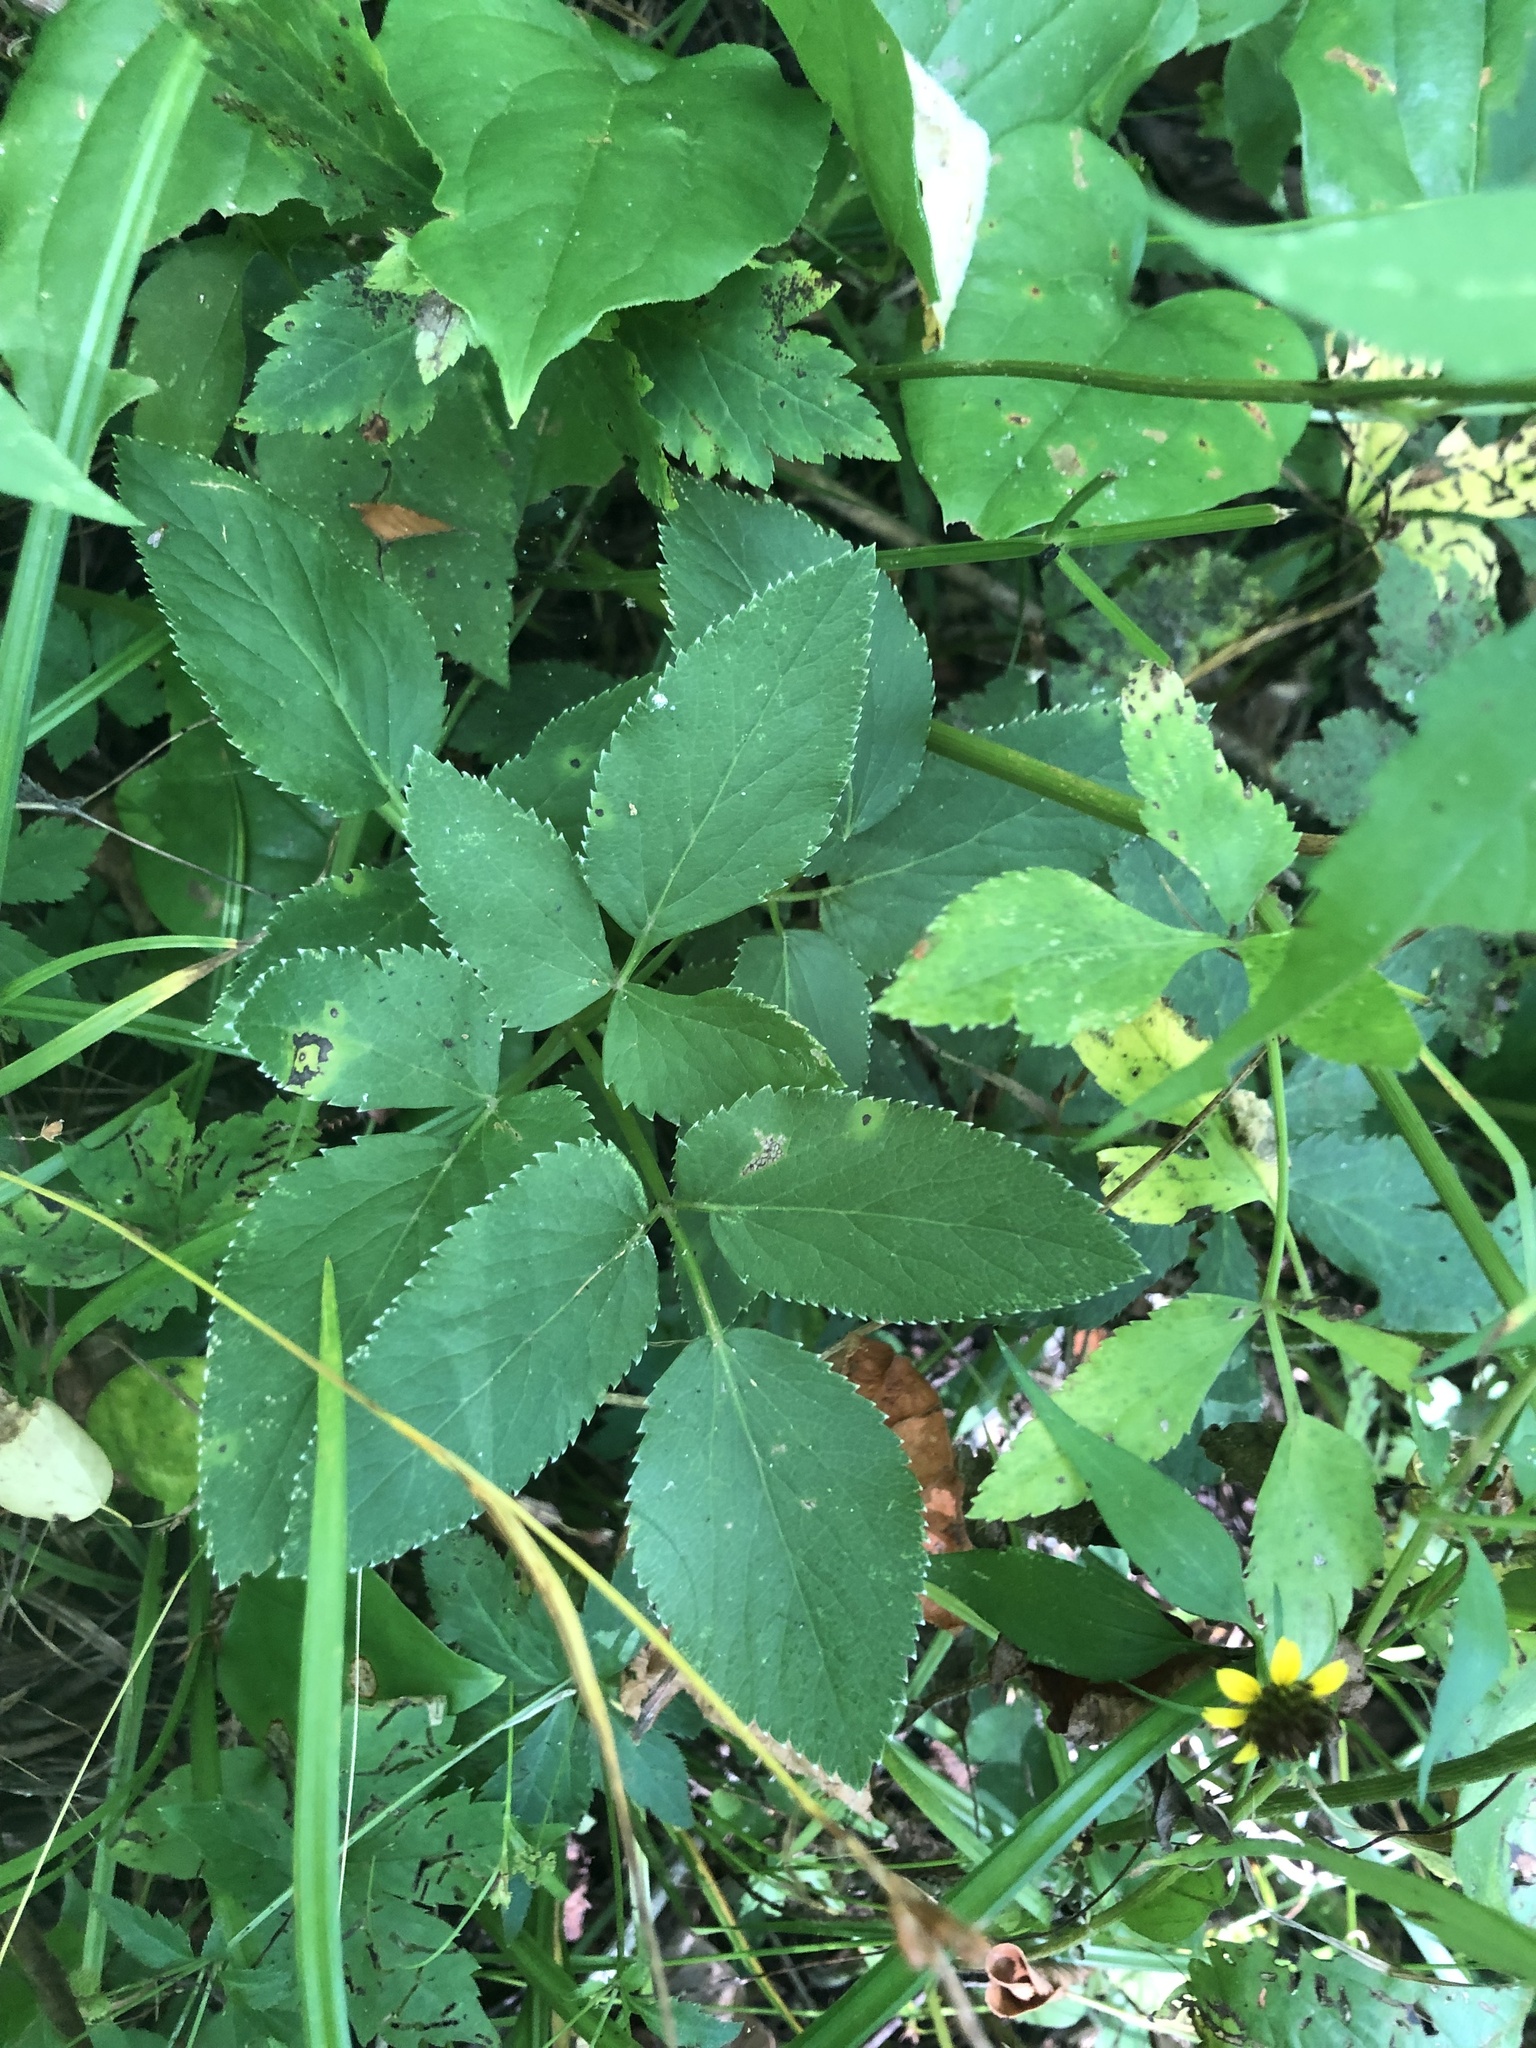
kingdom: Plantae
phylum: Tracheophyta
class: Magnoliopsida
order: Apiales
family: Apiaceae
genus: Zizia
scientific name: Zizia aurea
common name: Golden alexanders
